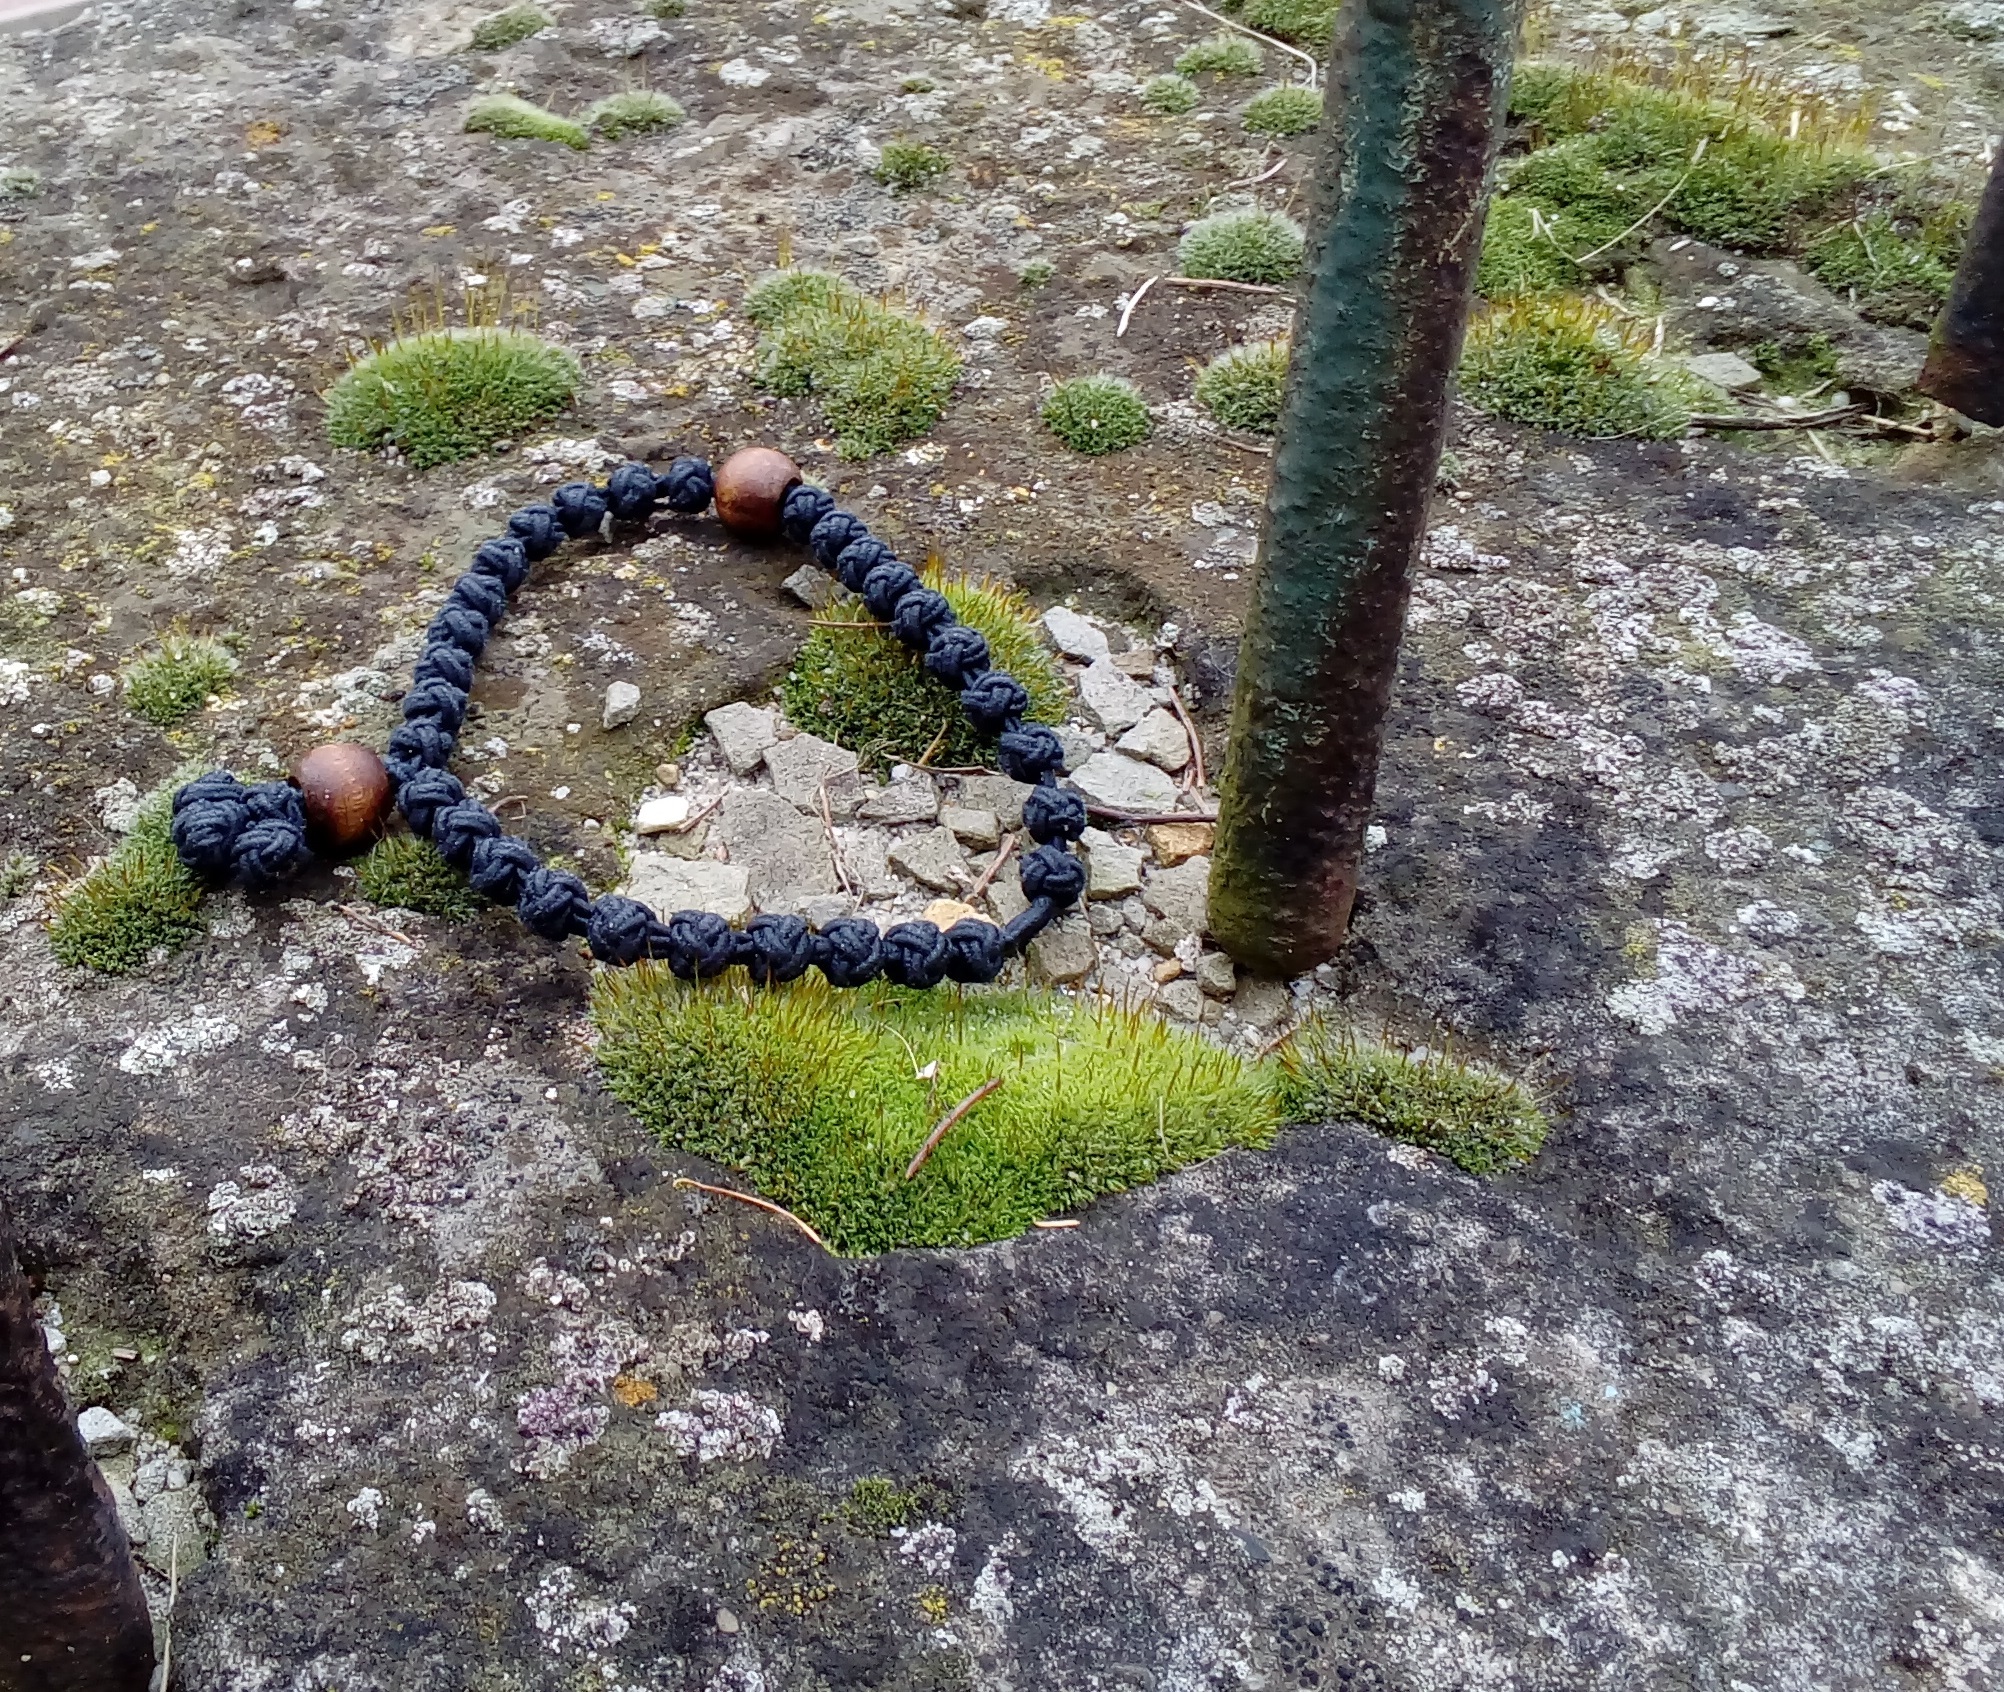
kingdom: Plantae
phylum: Bryophyta
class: Bryopsida
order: Pottiales
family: Pottiaceae
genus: Tortula
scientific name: Tortula muralis
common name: Wall screw-moss
